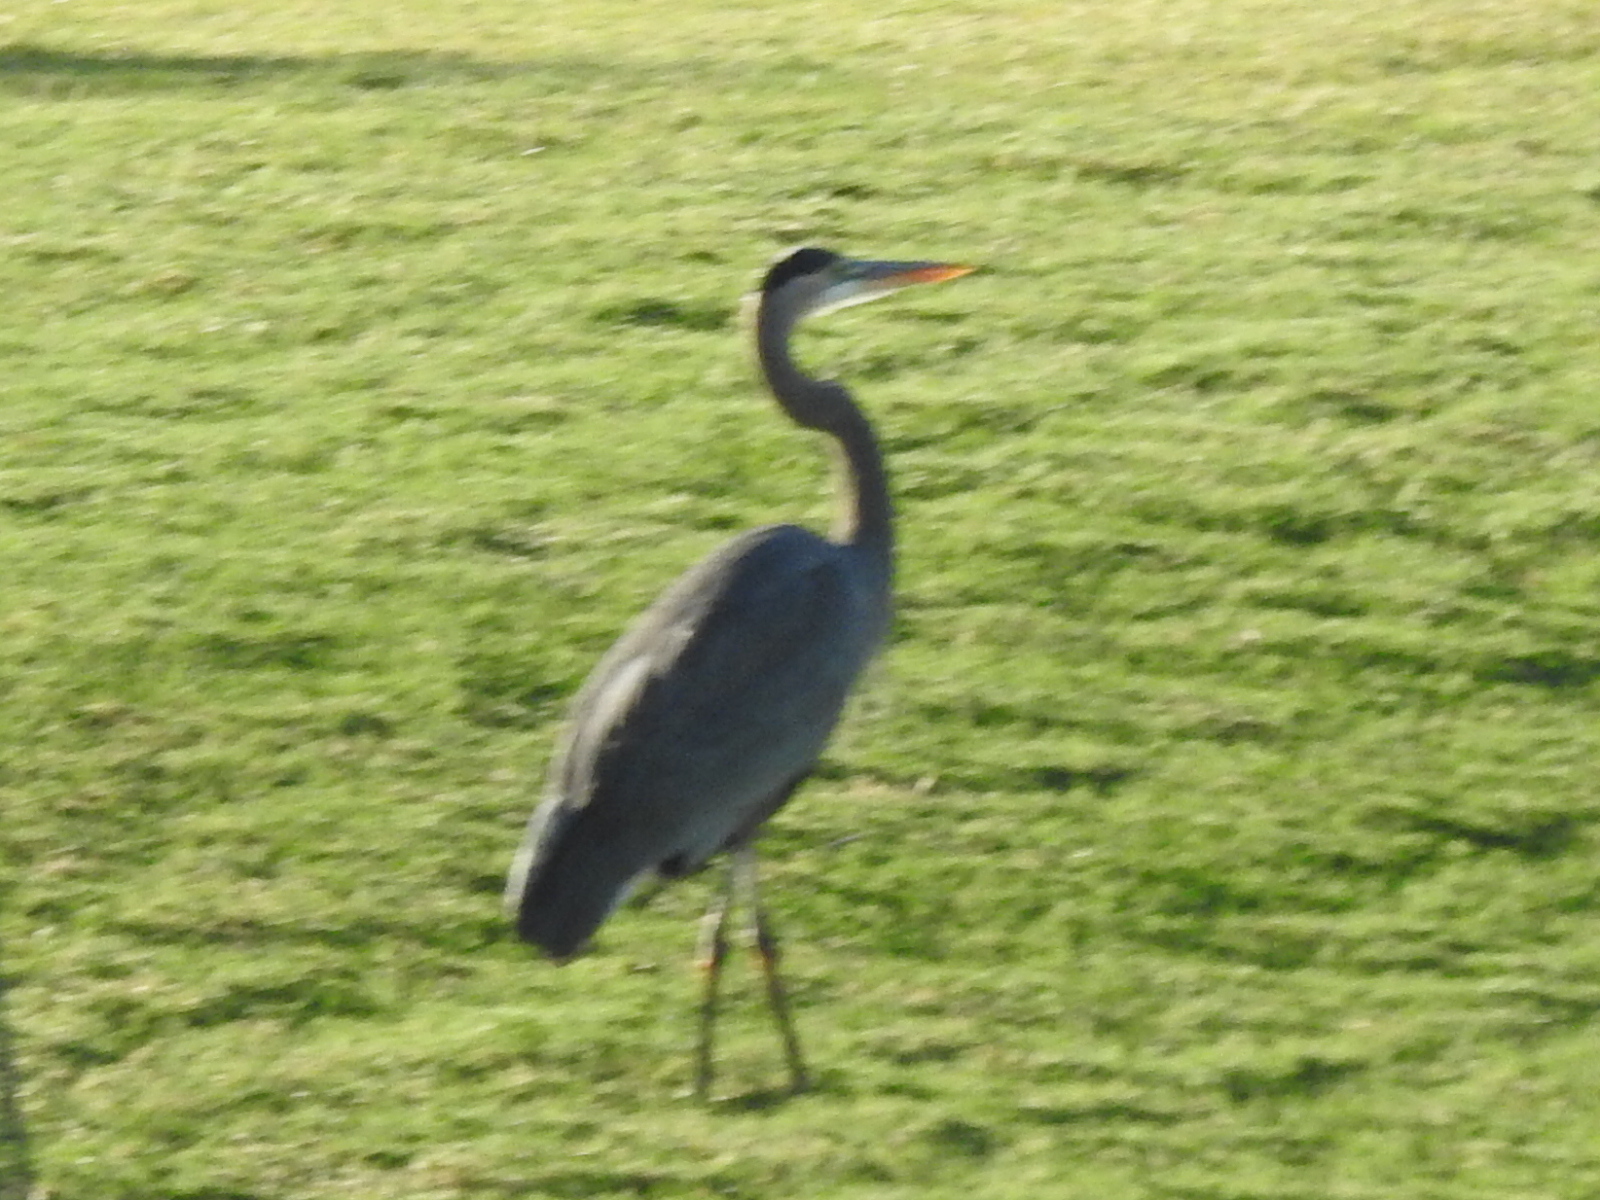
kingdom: Animalia
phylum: Chordata
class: Aves
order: Pelecaniformes
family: Ardeidae
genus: Ardea
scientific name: Ardea herodias
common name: Great blue heron
